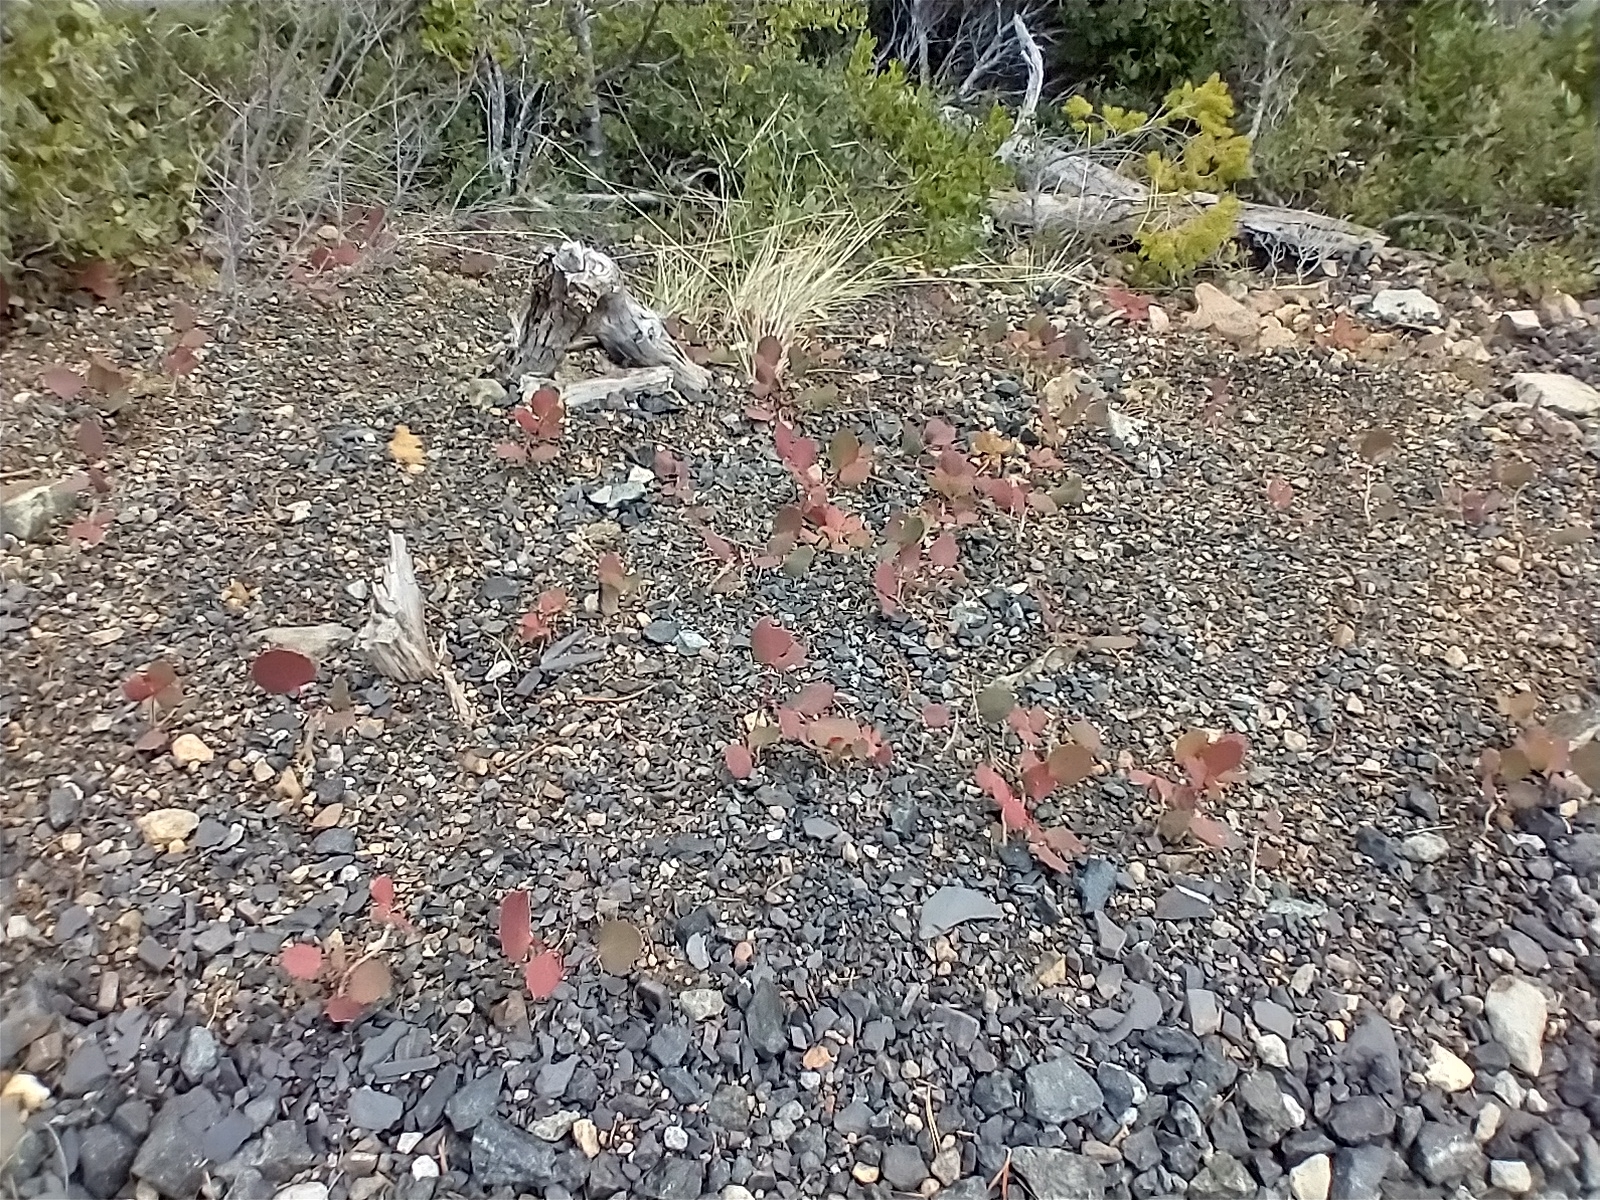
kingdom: Plantae
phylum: Tracheophyta
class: Magnoliopsida
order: Ranunculales
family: Berberidaceae
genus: Mahonia
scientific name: Mahonia repens
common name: Creeping oregon-grape
